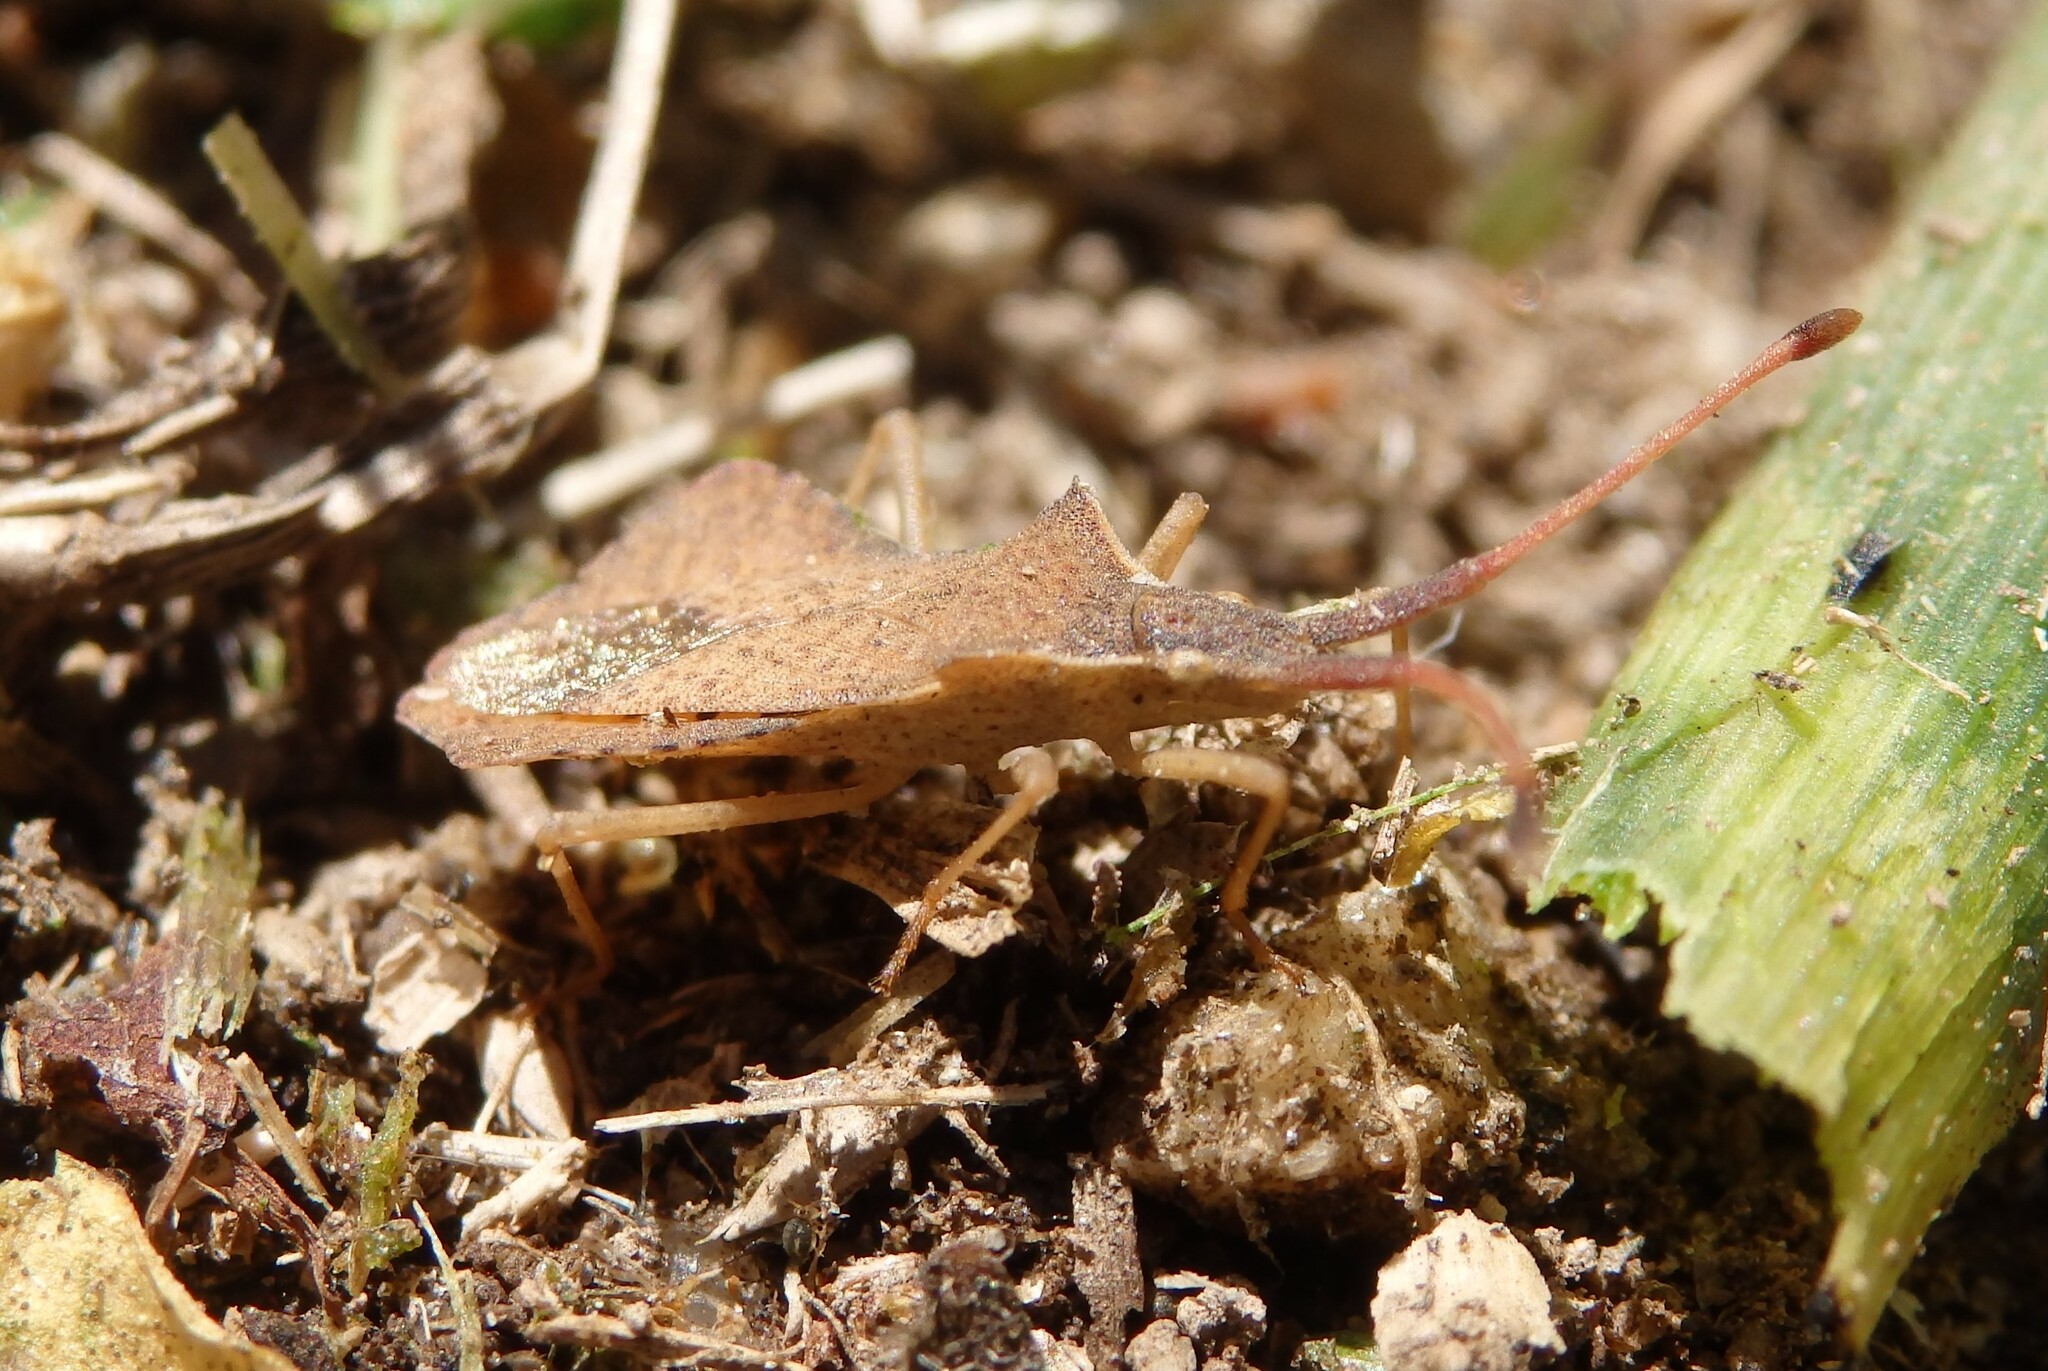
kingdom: Animalia
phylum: Arthropoda
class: Insecta
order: Hemiptera
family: Coreidae
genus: Syromastus
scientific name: Syromastus rhombeus
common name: Rhombic leatherbug
